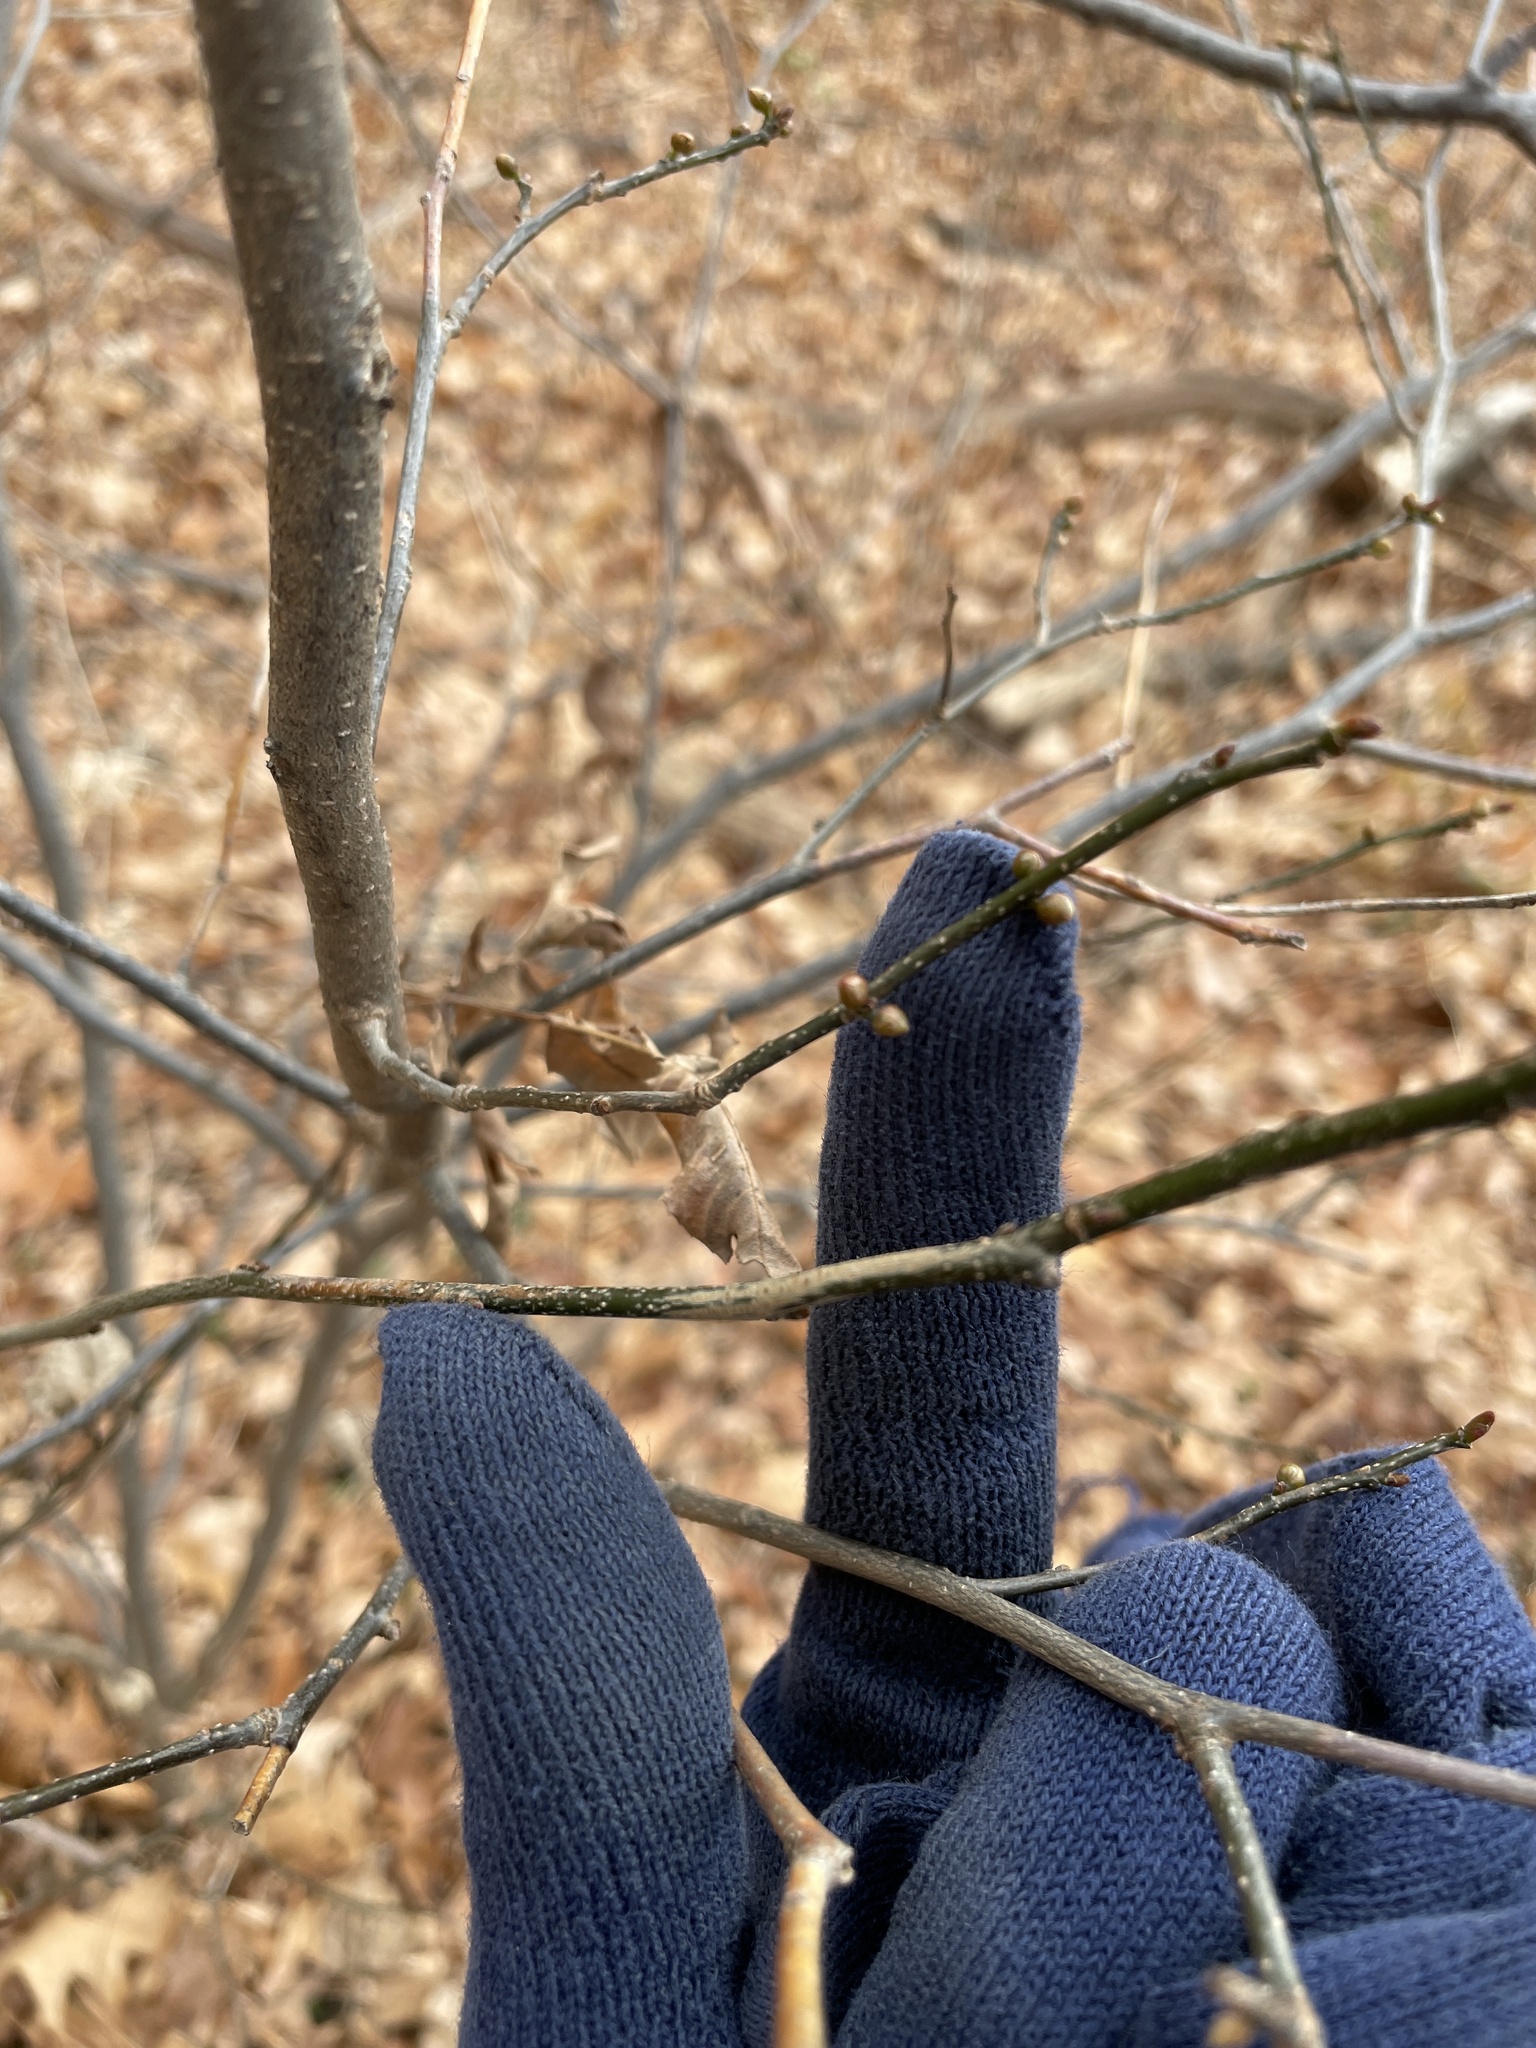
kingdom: Plantae
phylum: Tracheophyta
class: Magnoliopsida
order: Laurales
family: Lauraceae
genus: Lindera
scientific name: Lindera benzoin
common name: Spicebush
